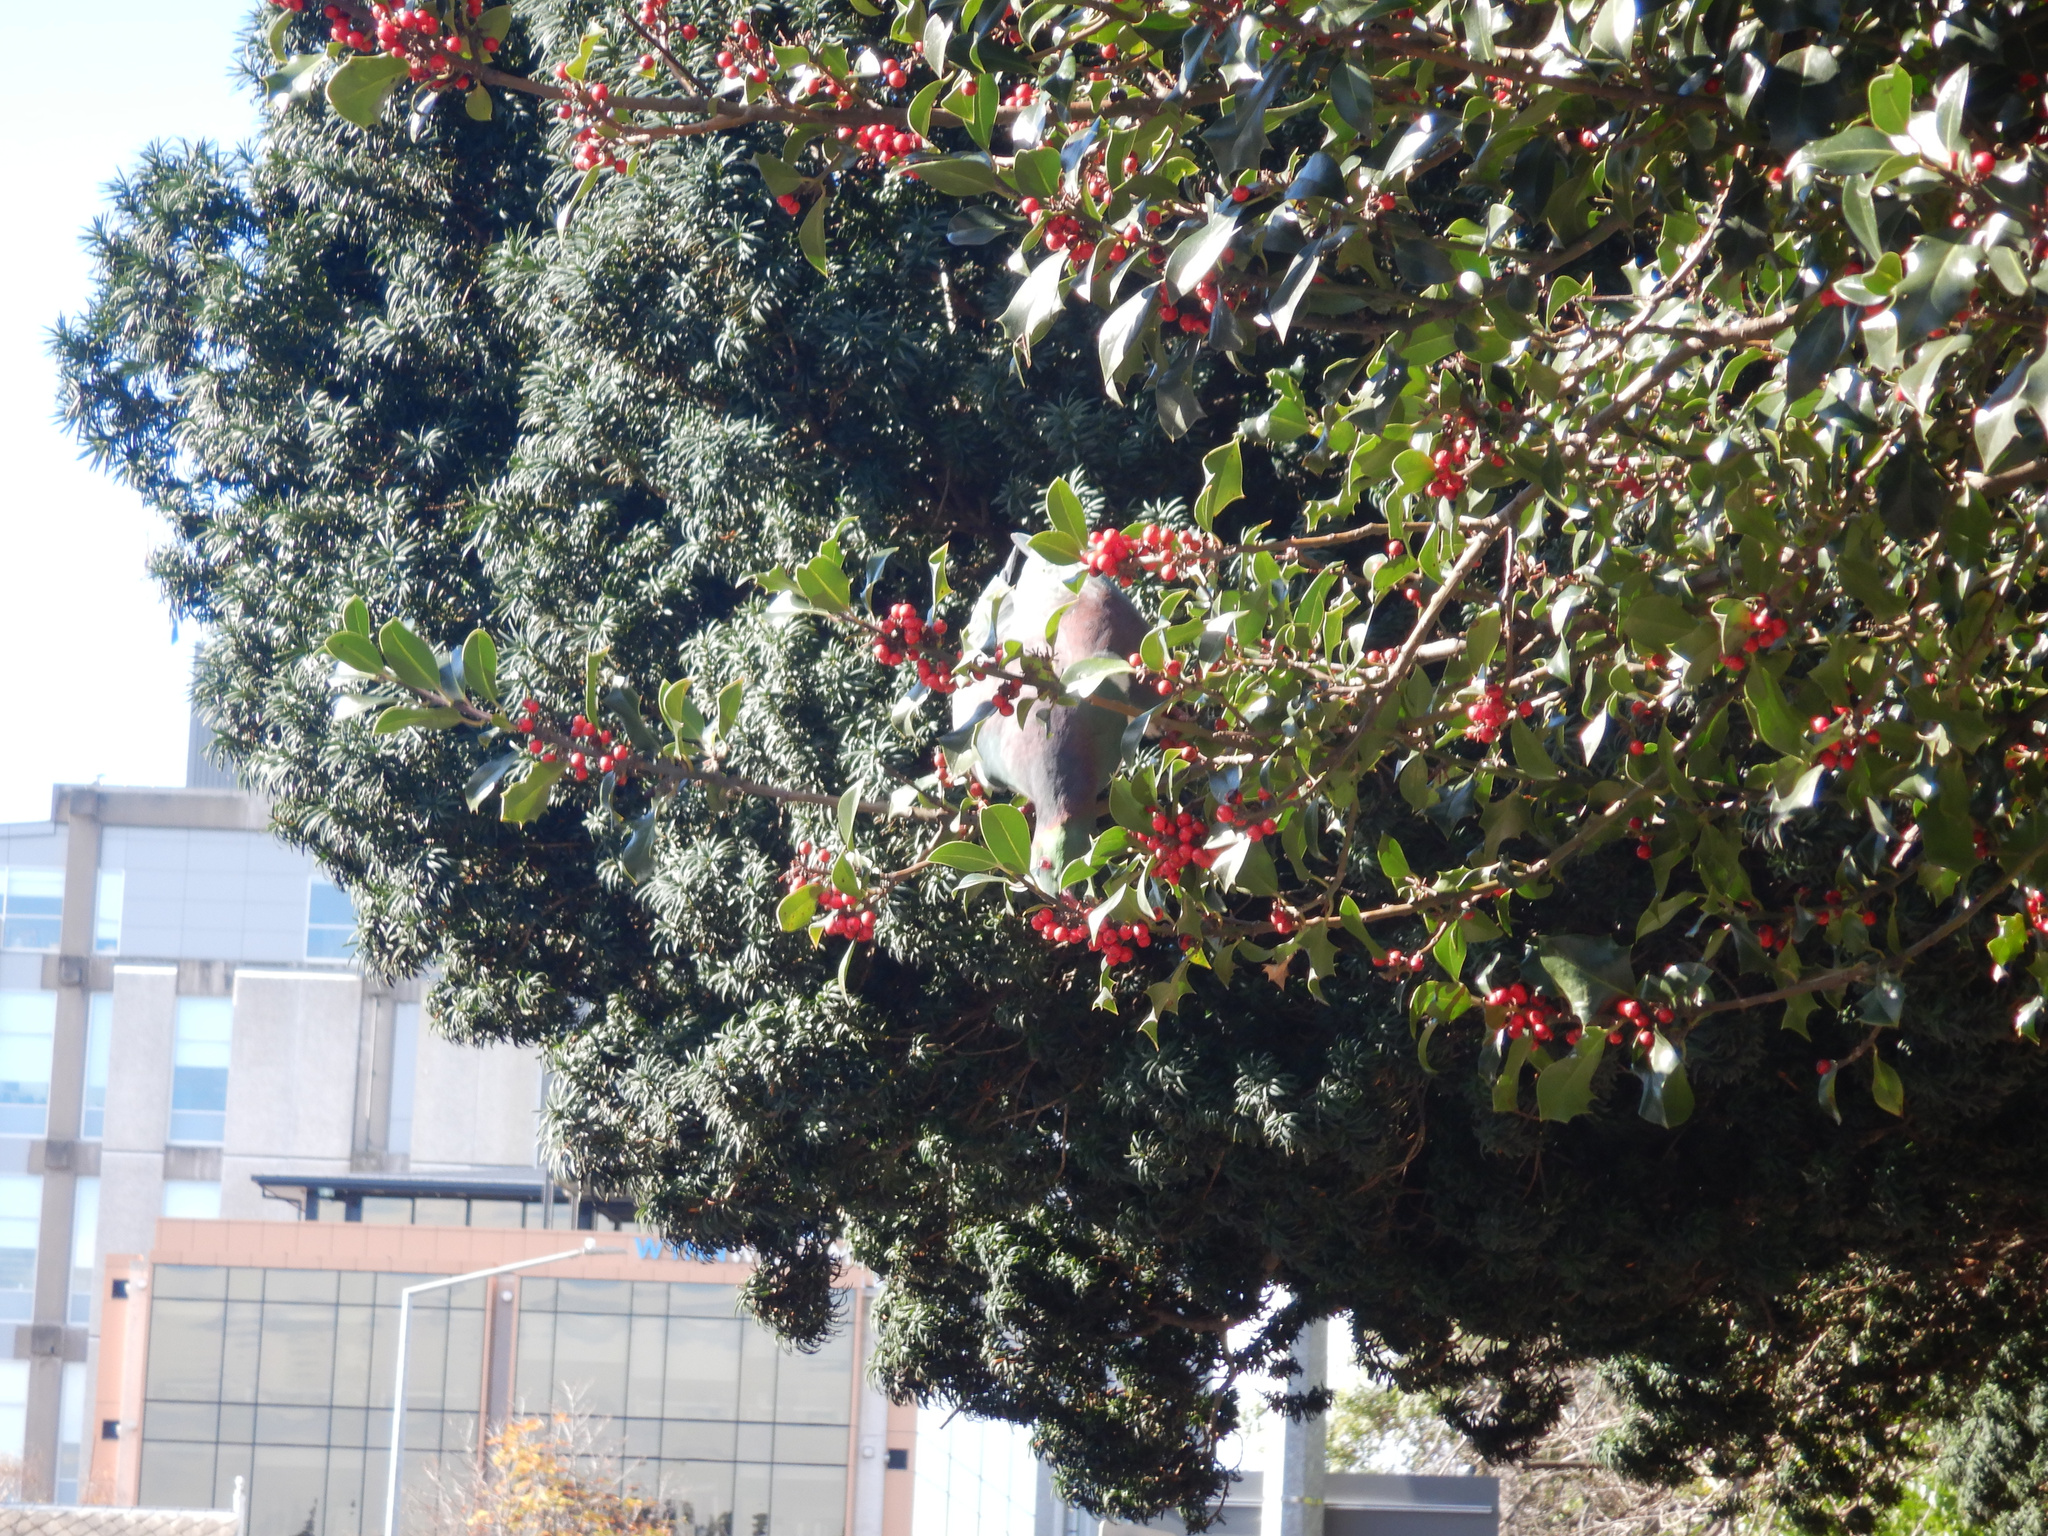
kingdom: Animalia
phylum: Chordata
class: Aves
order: Columbiformes
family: Columbidae
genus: Hemiphaga
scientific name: Hemiphaga novaeseelandiae
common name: New zealand pigeon
